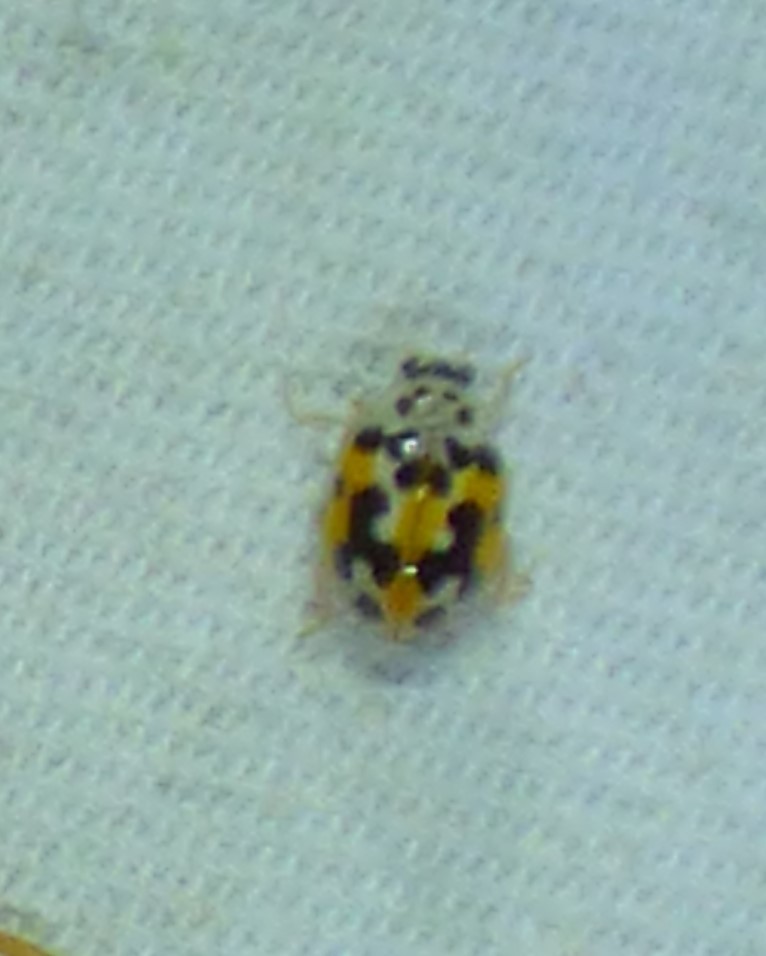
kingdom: Animalia
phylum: Arthropoda
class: Insecta
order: Coleoptera
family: Coccinellidae
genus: Psyllobora
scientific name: Psyllobora vigintimaculata
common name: Ladybird beetle
